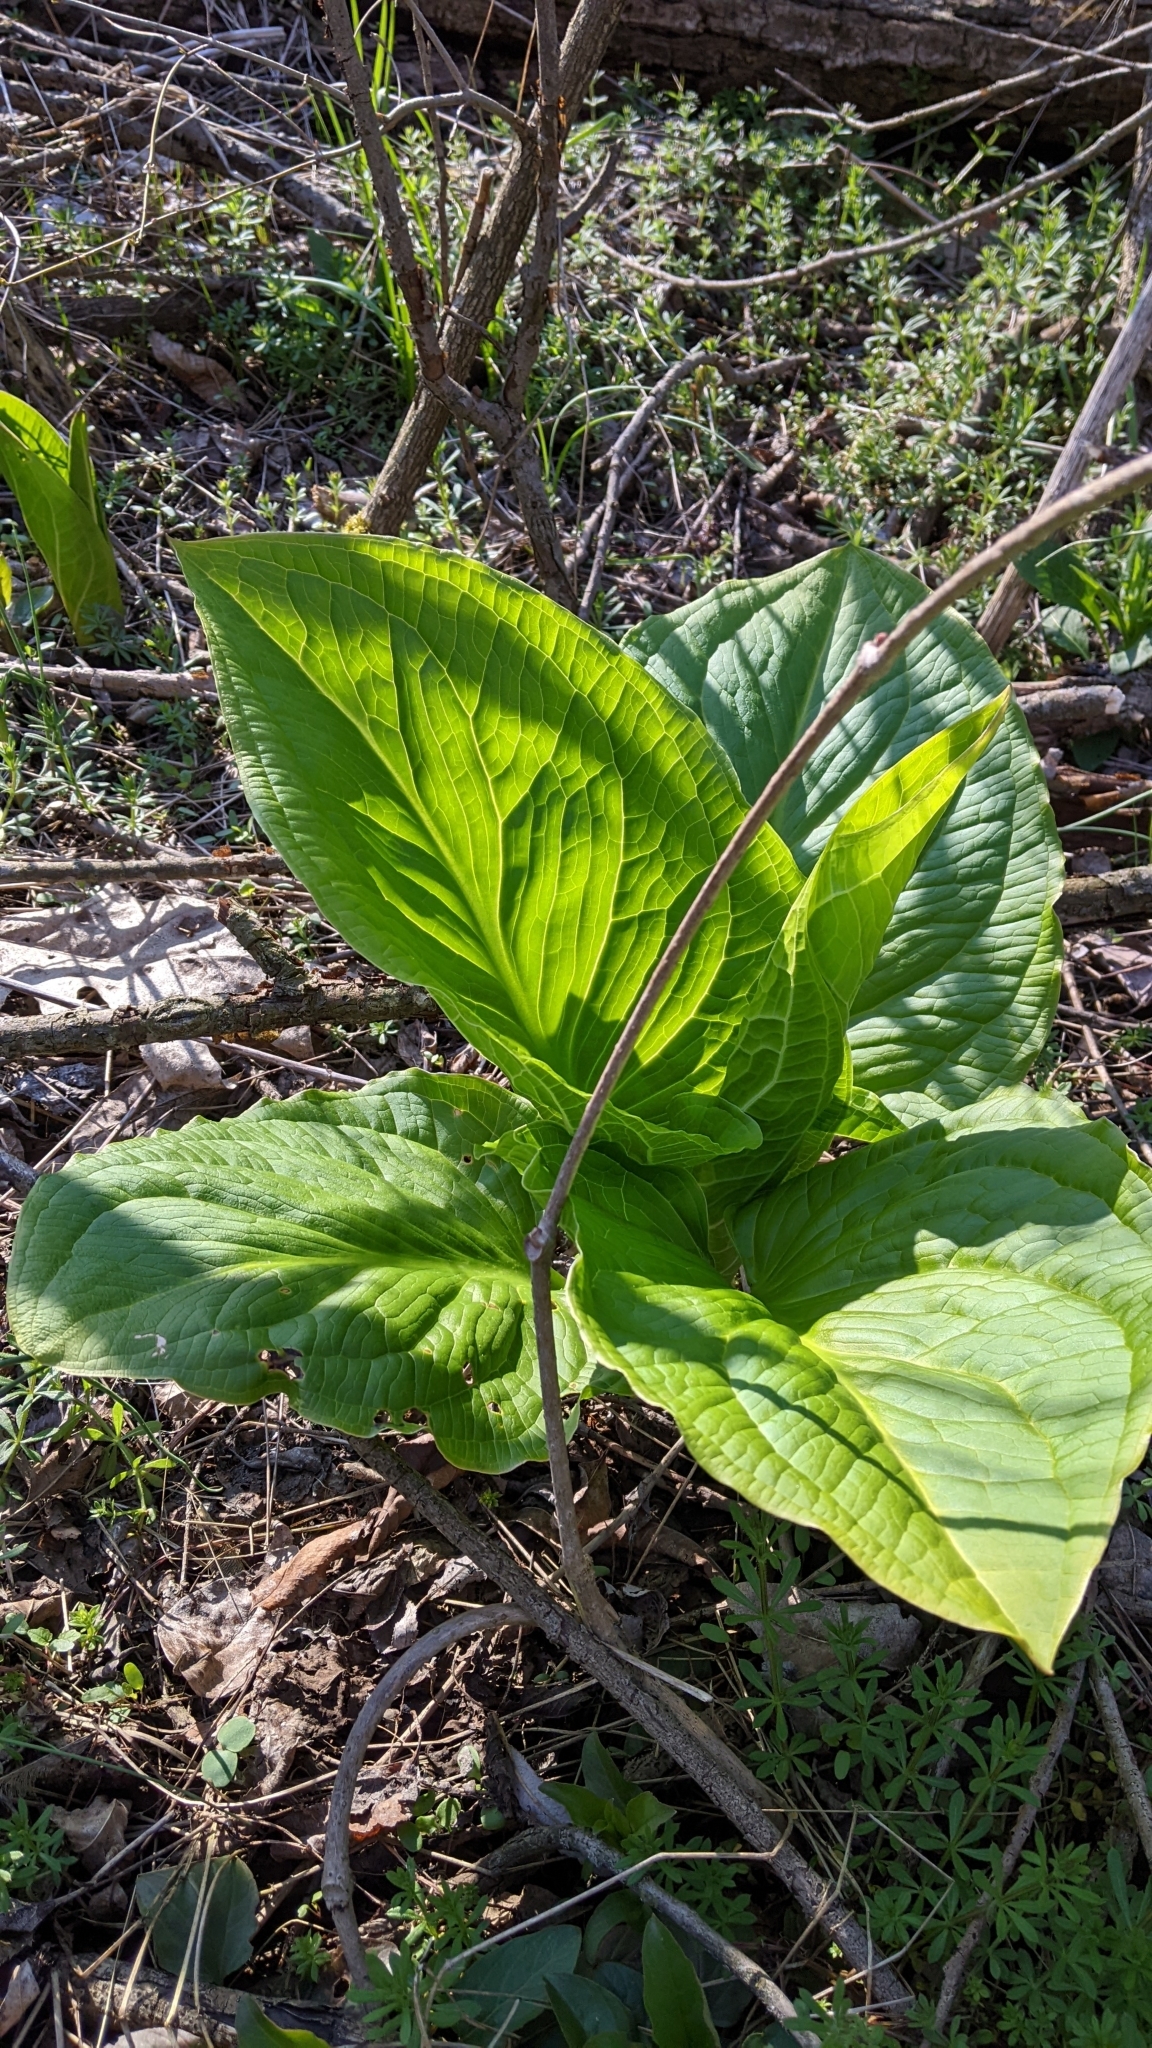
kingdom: Plantae
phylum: Tracheophyta
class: Liliopsida
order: Alismatales
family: Araceae
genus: Symplocarpus
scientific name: Symplocarpus foetidus
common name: Eastern skunk cabbage
